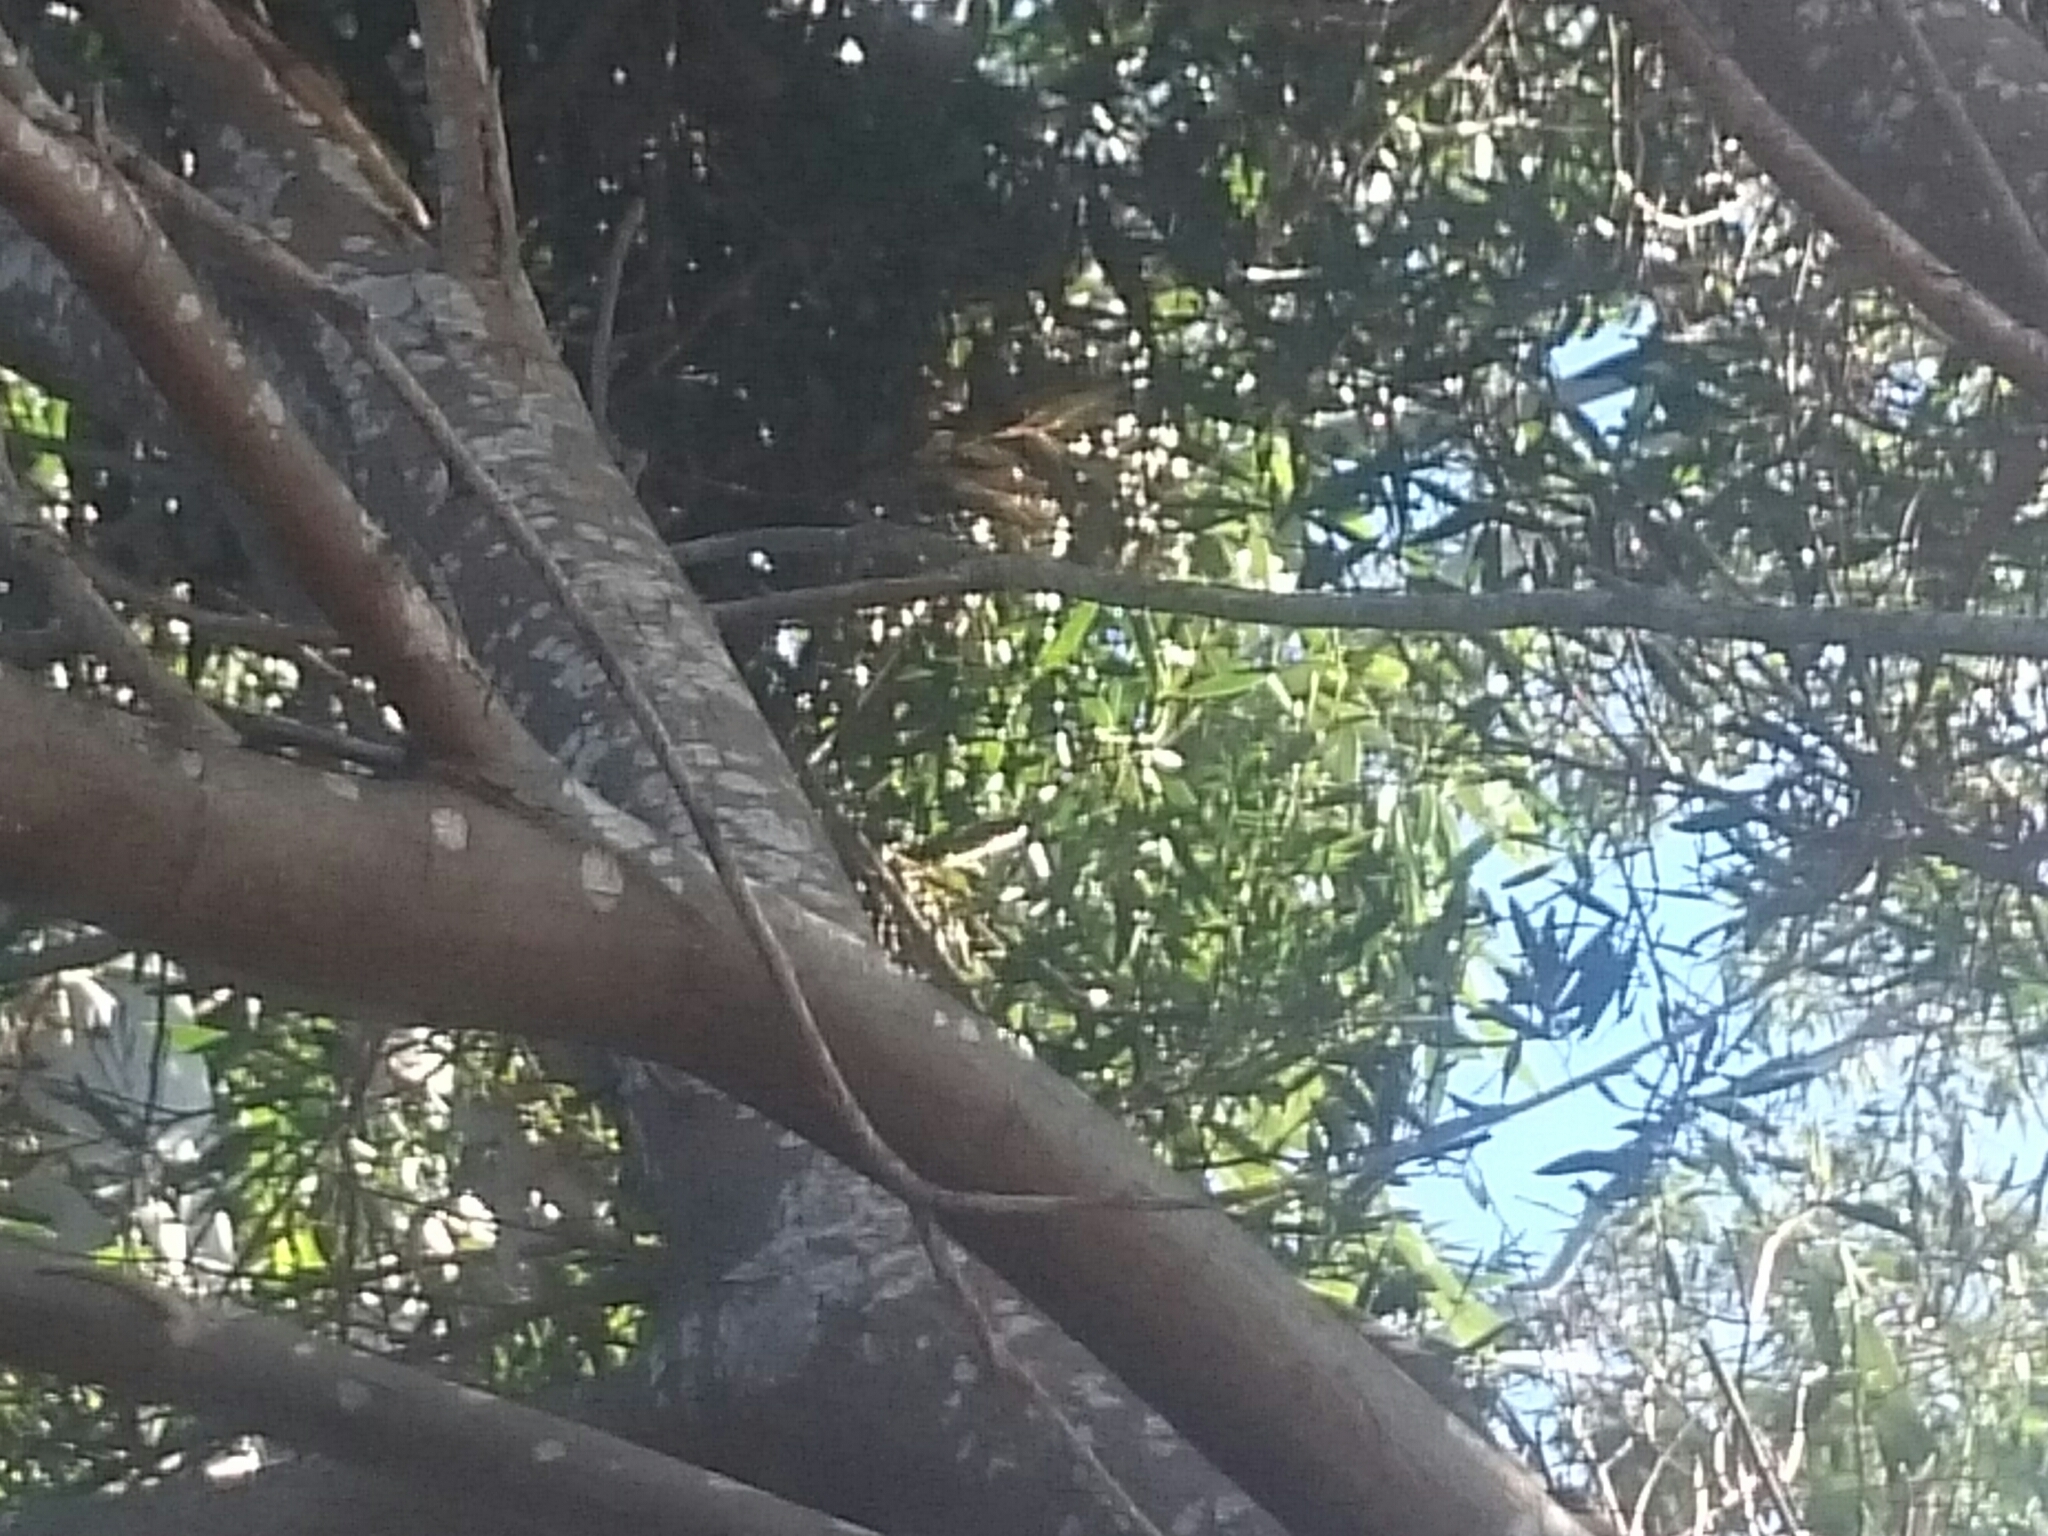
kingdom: Animalia
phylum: Chordata
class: Aves
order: Passeriformes
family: Rhipiduridae
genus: Rhipidura
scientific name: Rhipidura fuliginosa
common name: New zealand fantail
